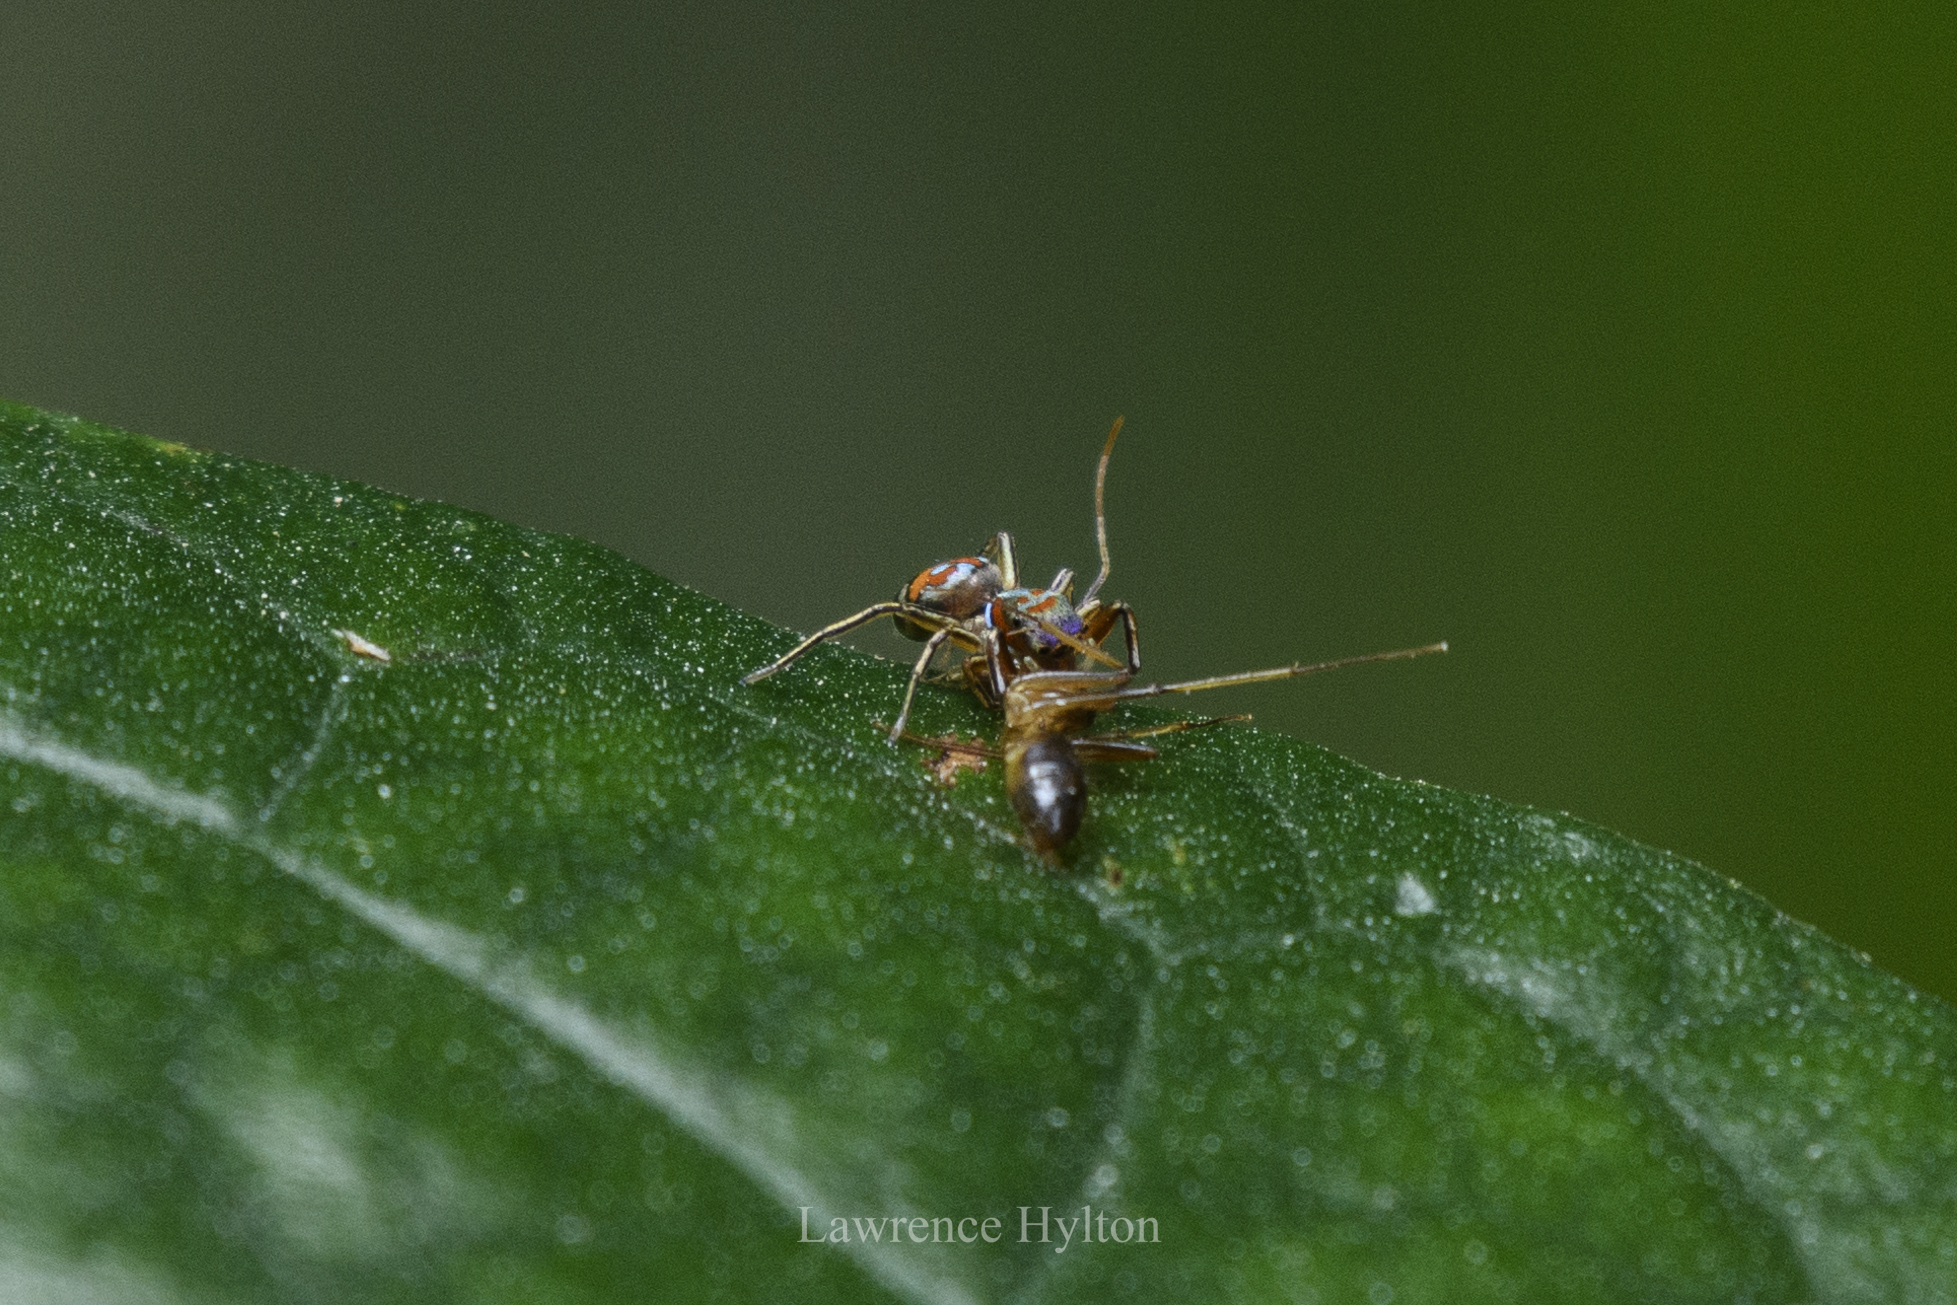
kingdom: Animalia
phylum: Arthropoda
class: Arachnida
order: Araneae
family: Salticidae
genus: Siler
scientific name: Siler semiglaucus
